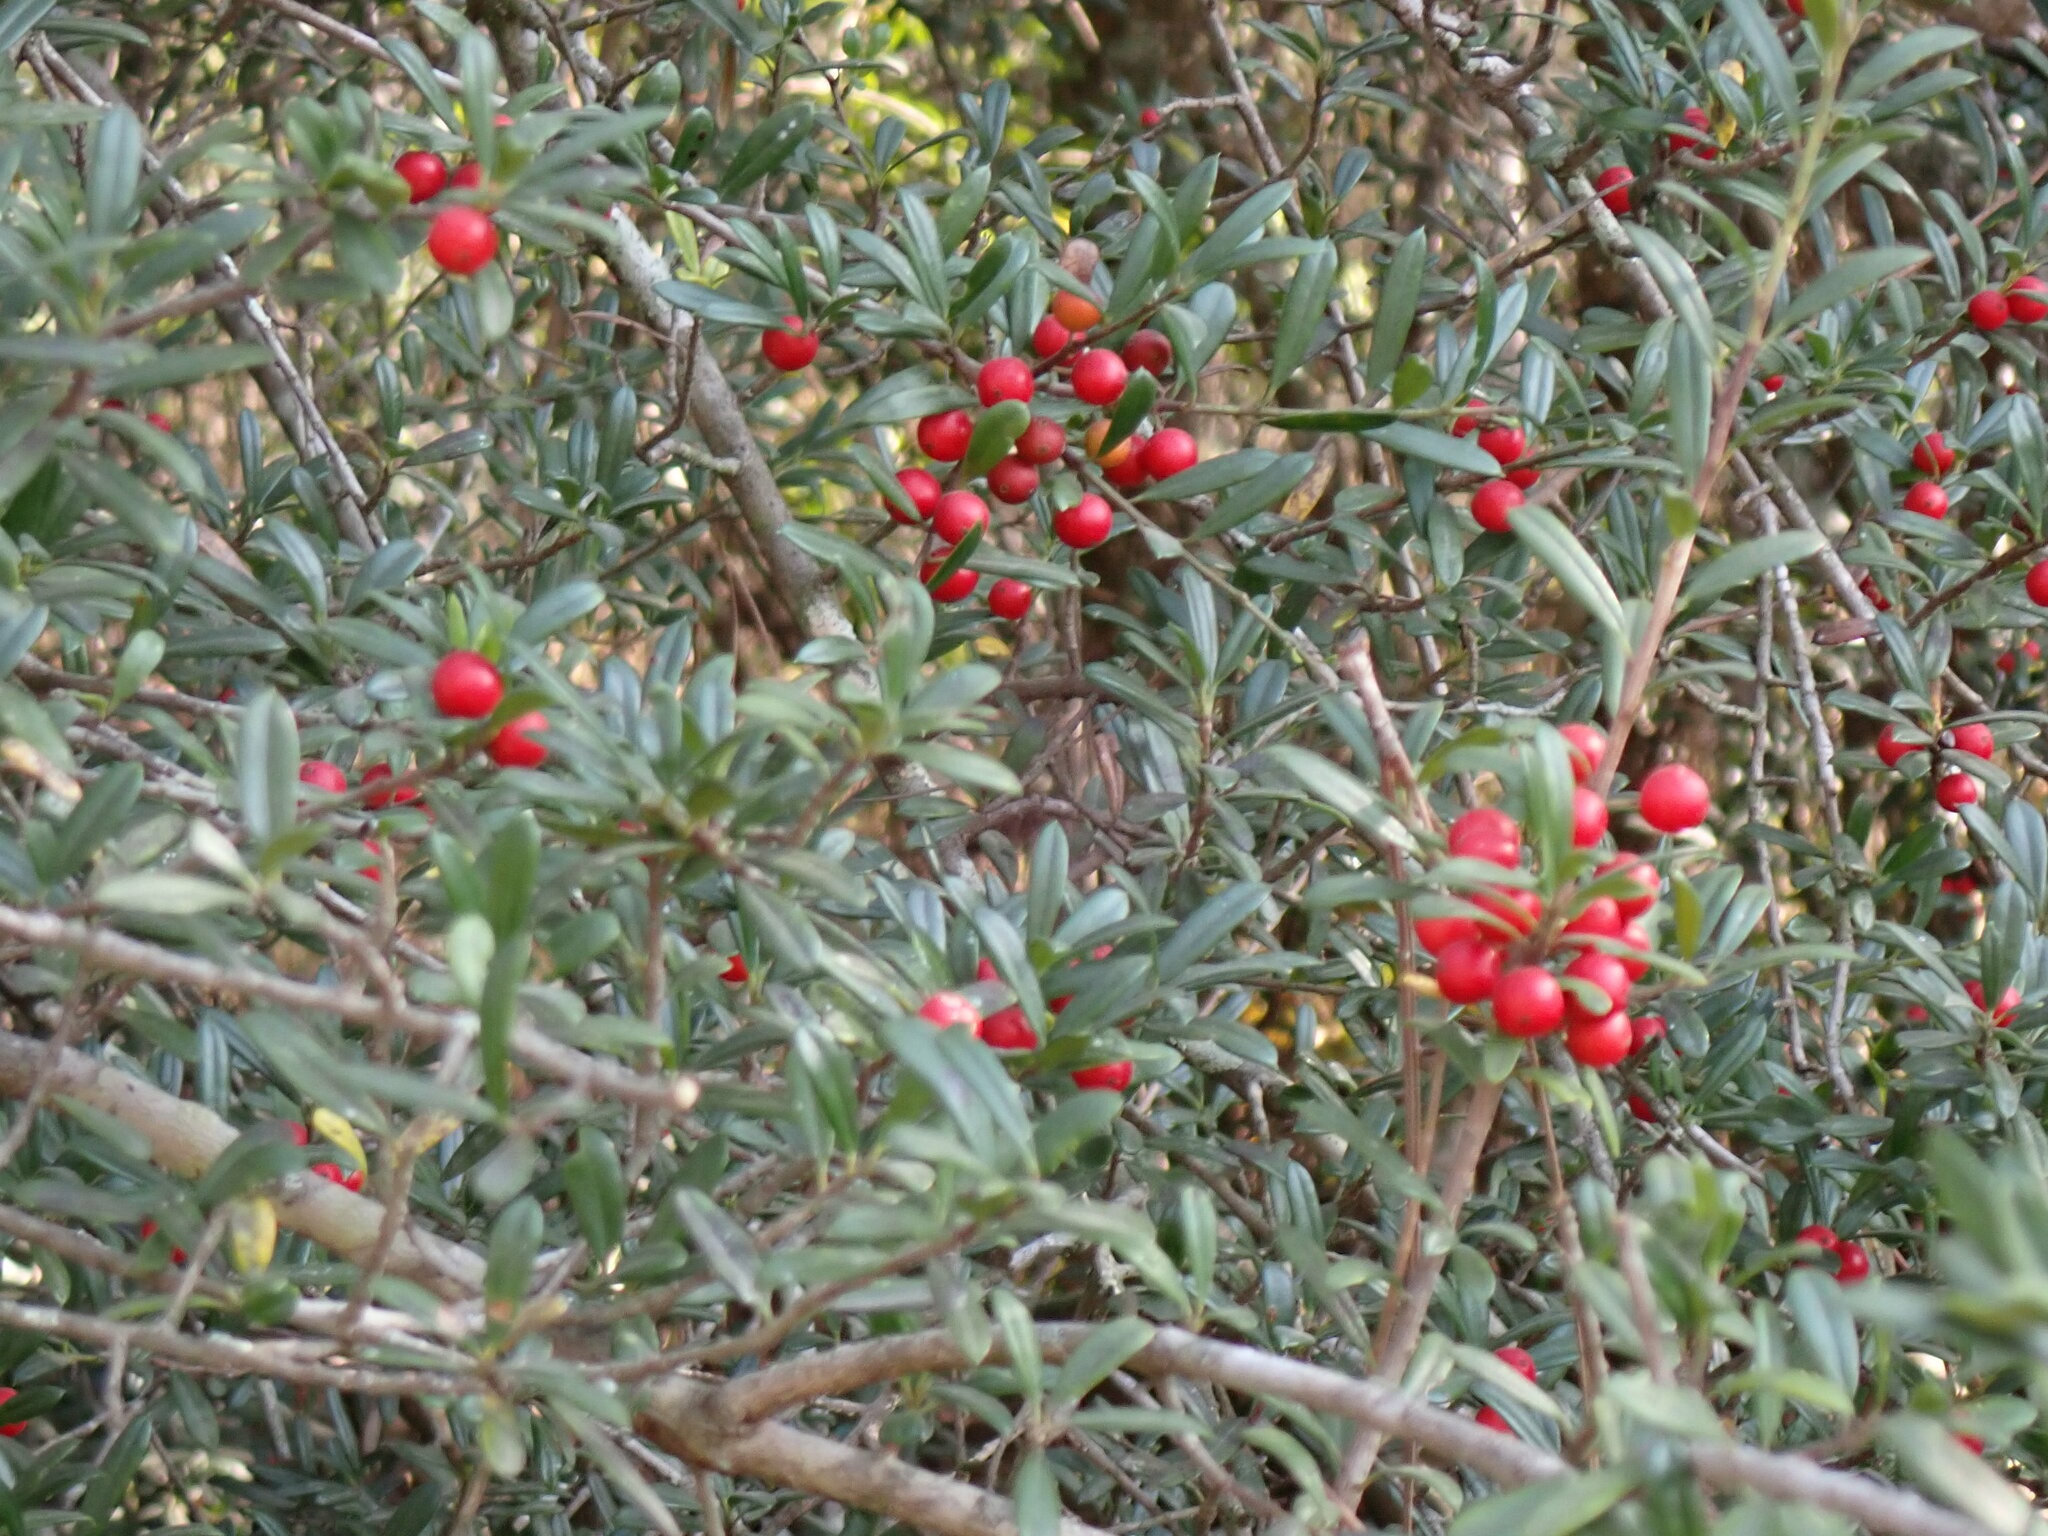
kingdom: Plantae
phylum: Tracheophyta
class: Magnoliopsida
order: Aquifoliales
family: Aquifoliaceae
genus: Ilex
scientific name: Ilex vomitoria
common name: Yaupon holly
